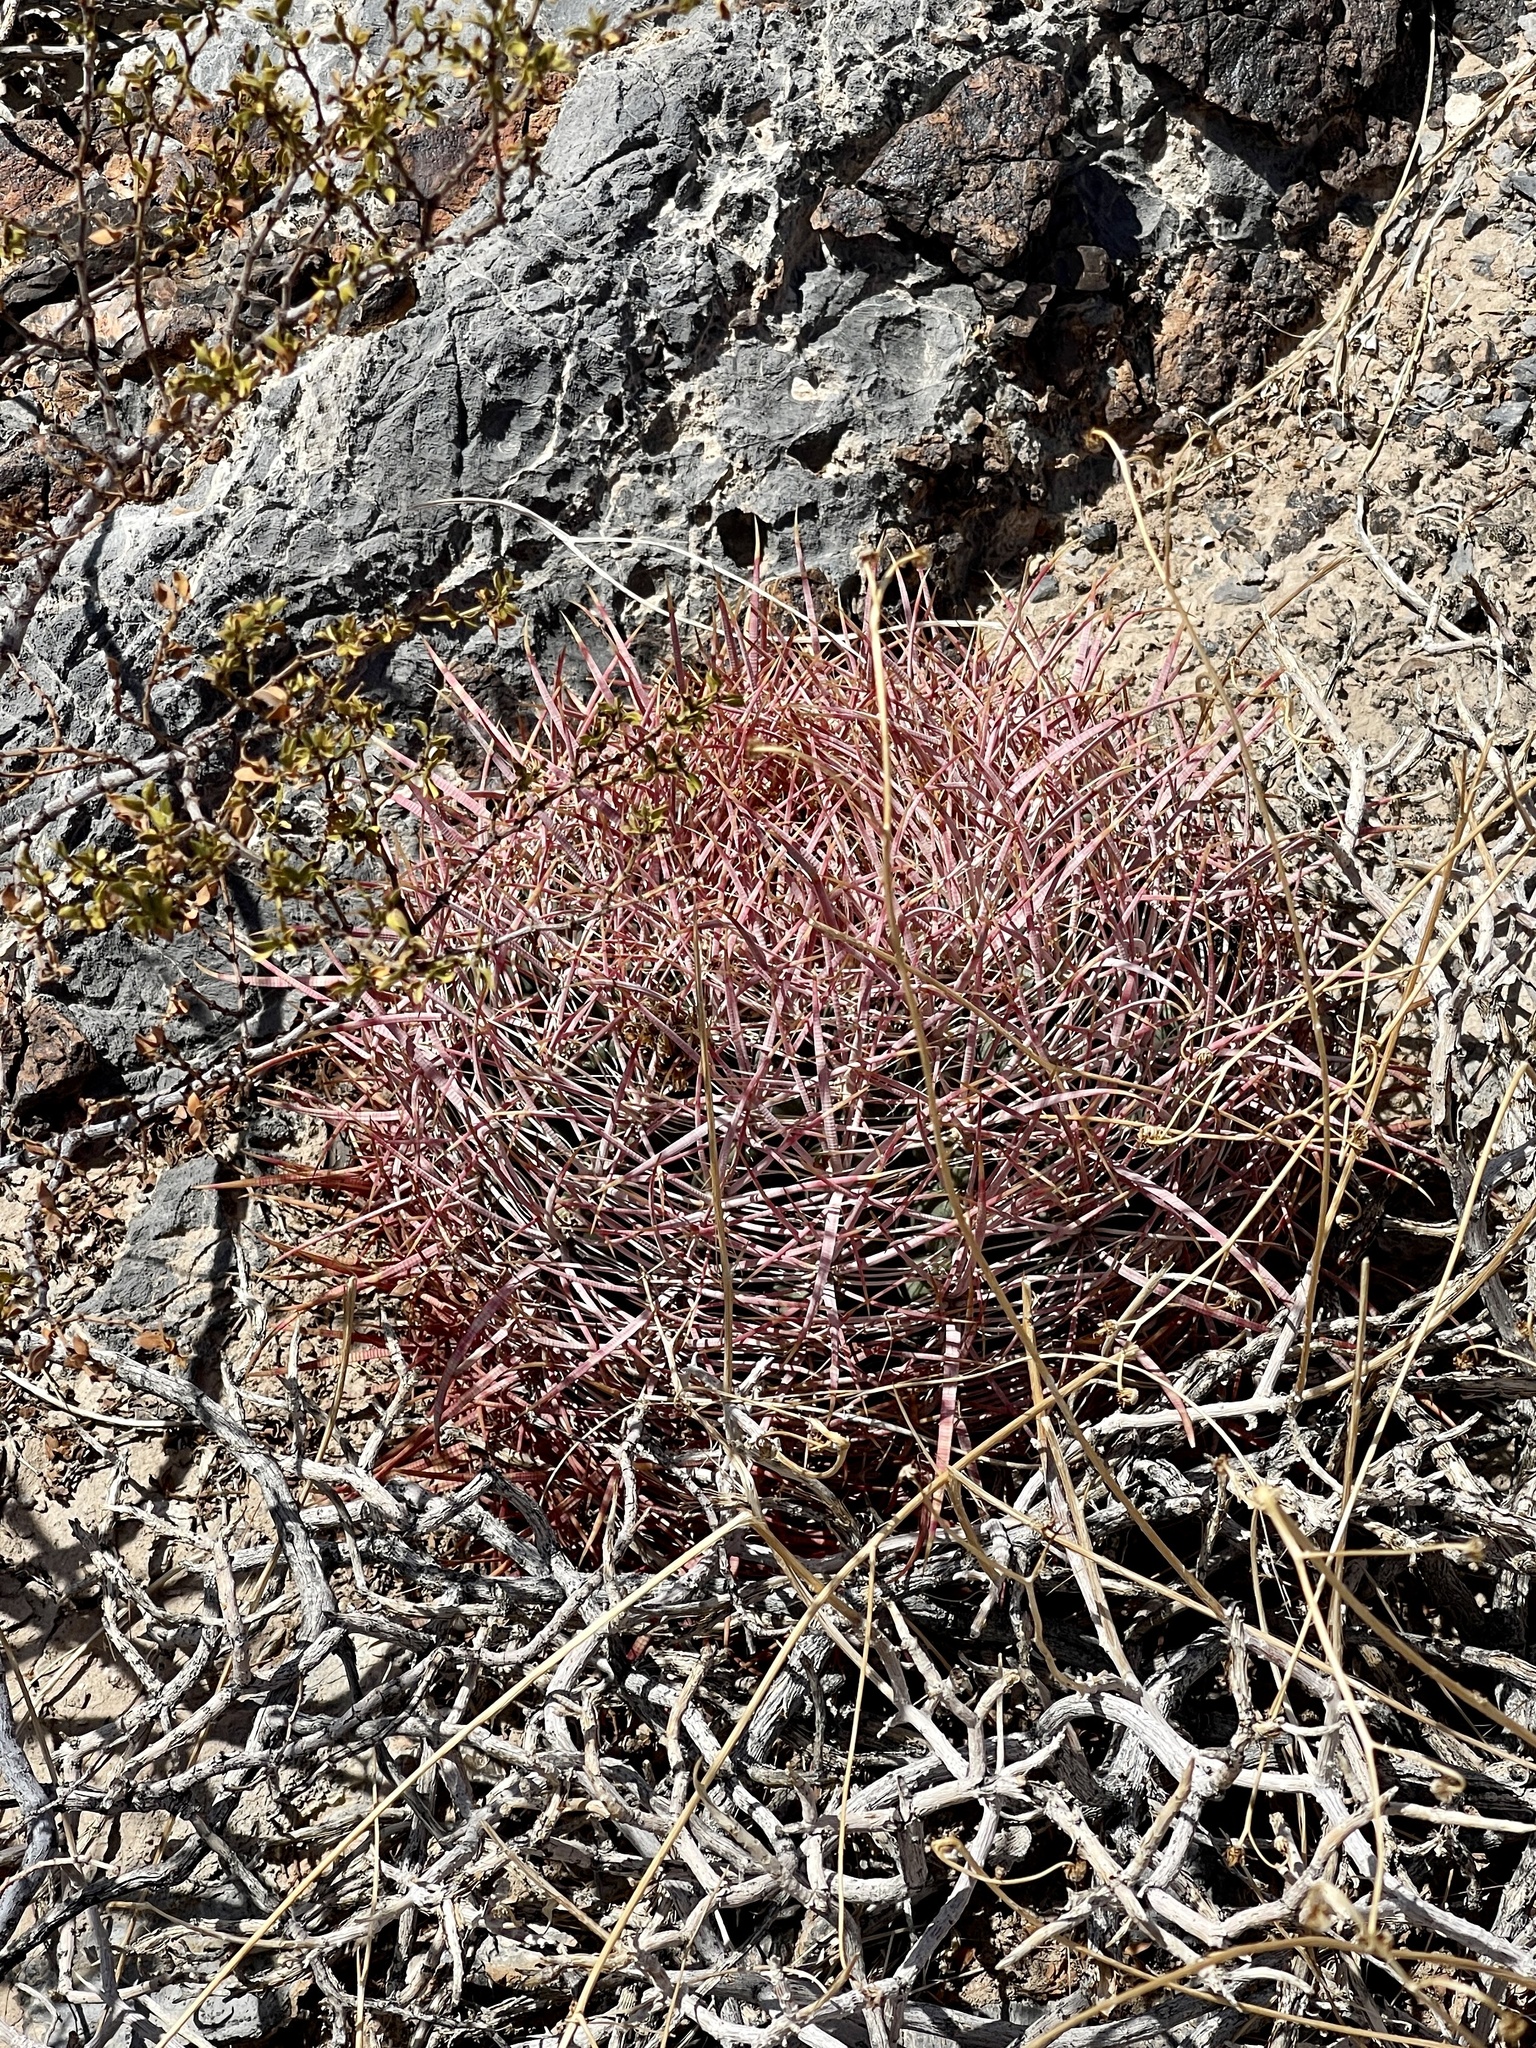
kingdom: Plantae
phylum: Tracheophyta
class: Magnoliopsida
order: Caryophyllales
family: Cactaceae
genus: Ferocactus
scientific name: Ferocactus cylindraceus
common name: California barrel cactus
